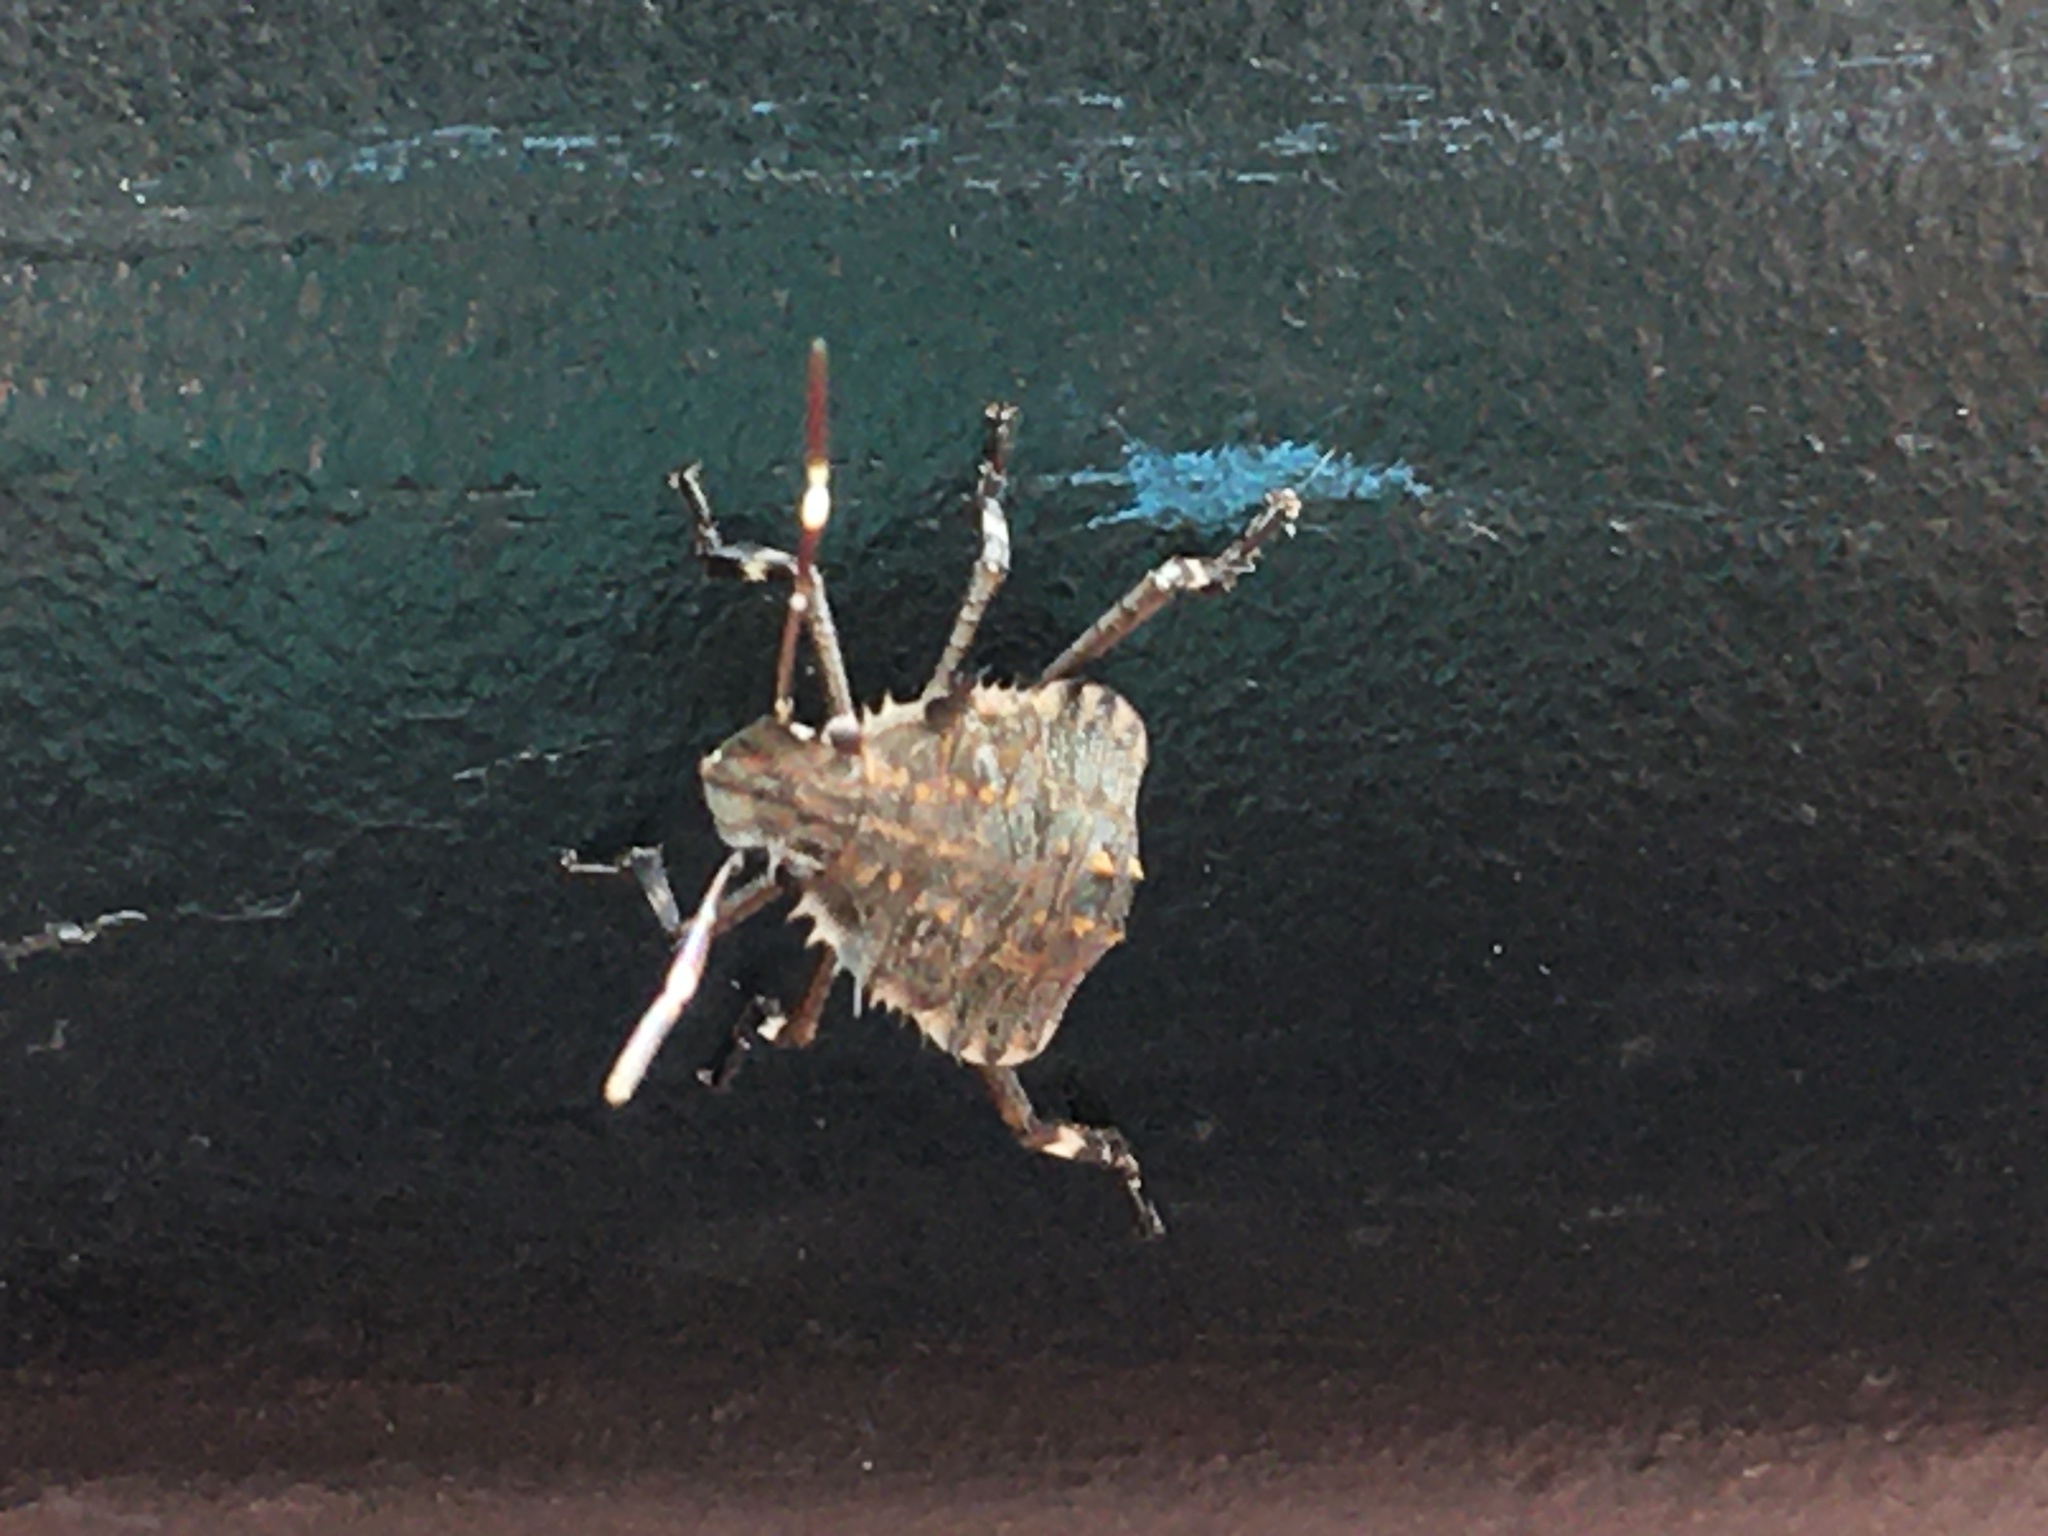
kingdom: Animalia
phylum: Arthropoda
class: Insecta
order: Hemiptera
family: Pentatomidae
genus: Halyomorpha
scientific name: Halyomorpha halys
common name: Brown marmorated stink bug
